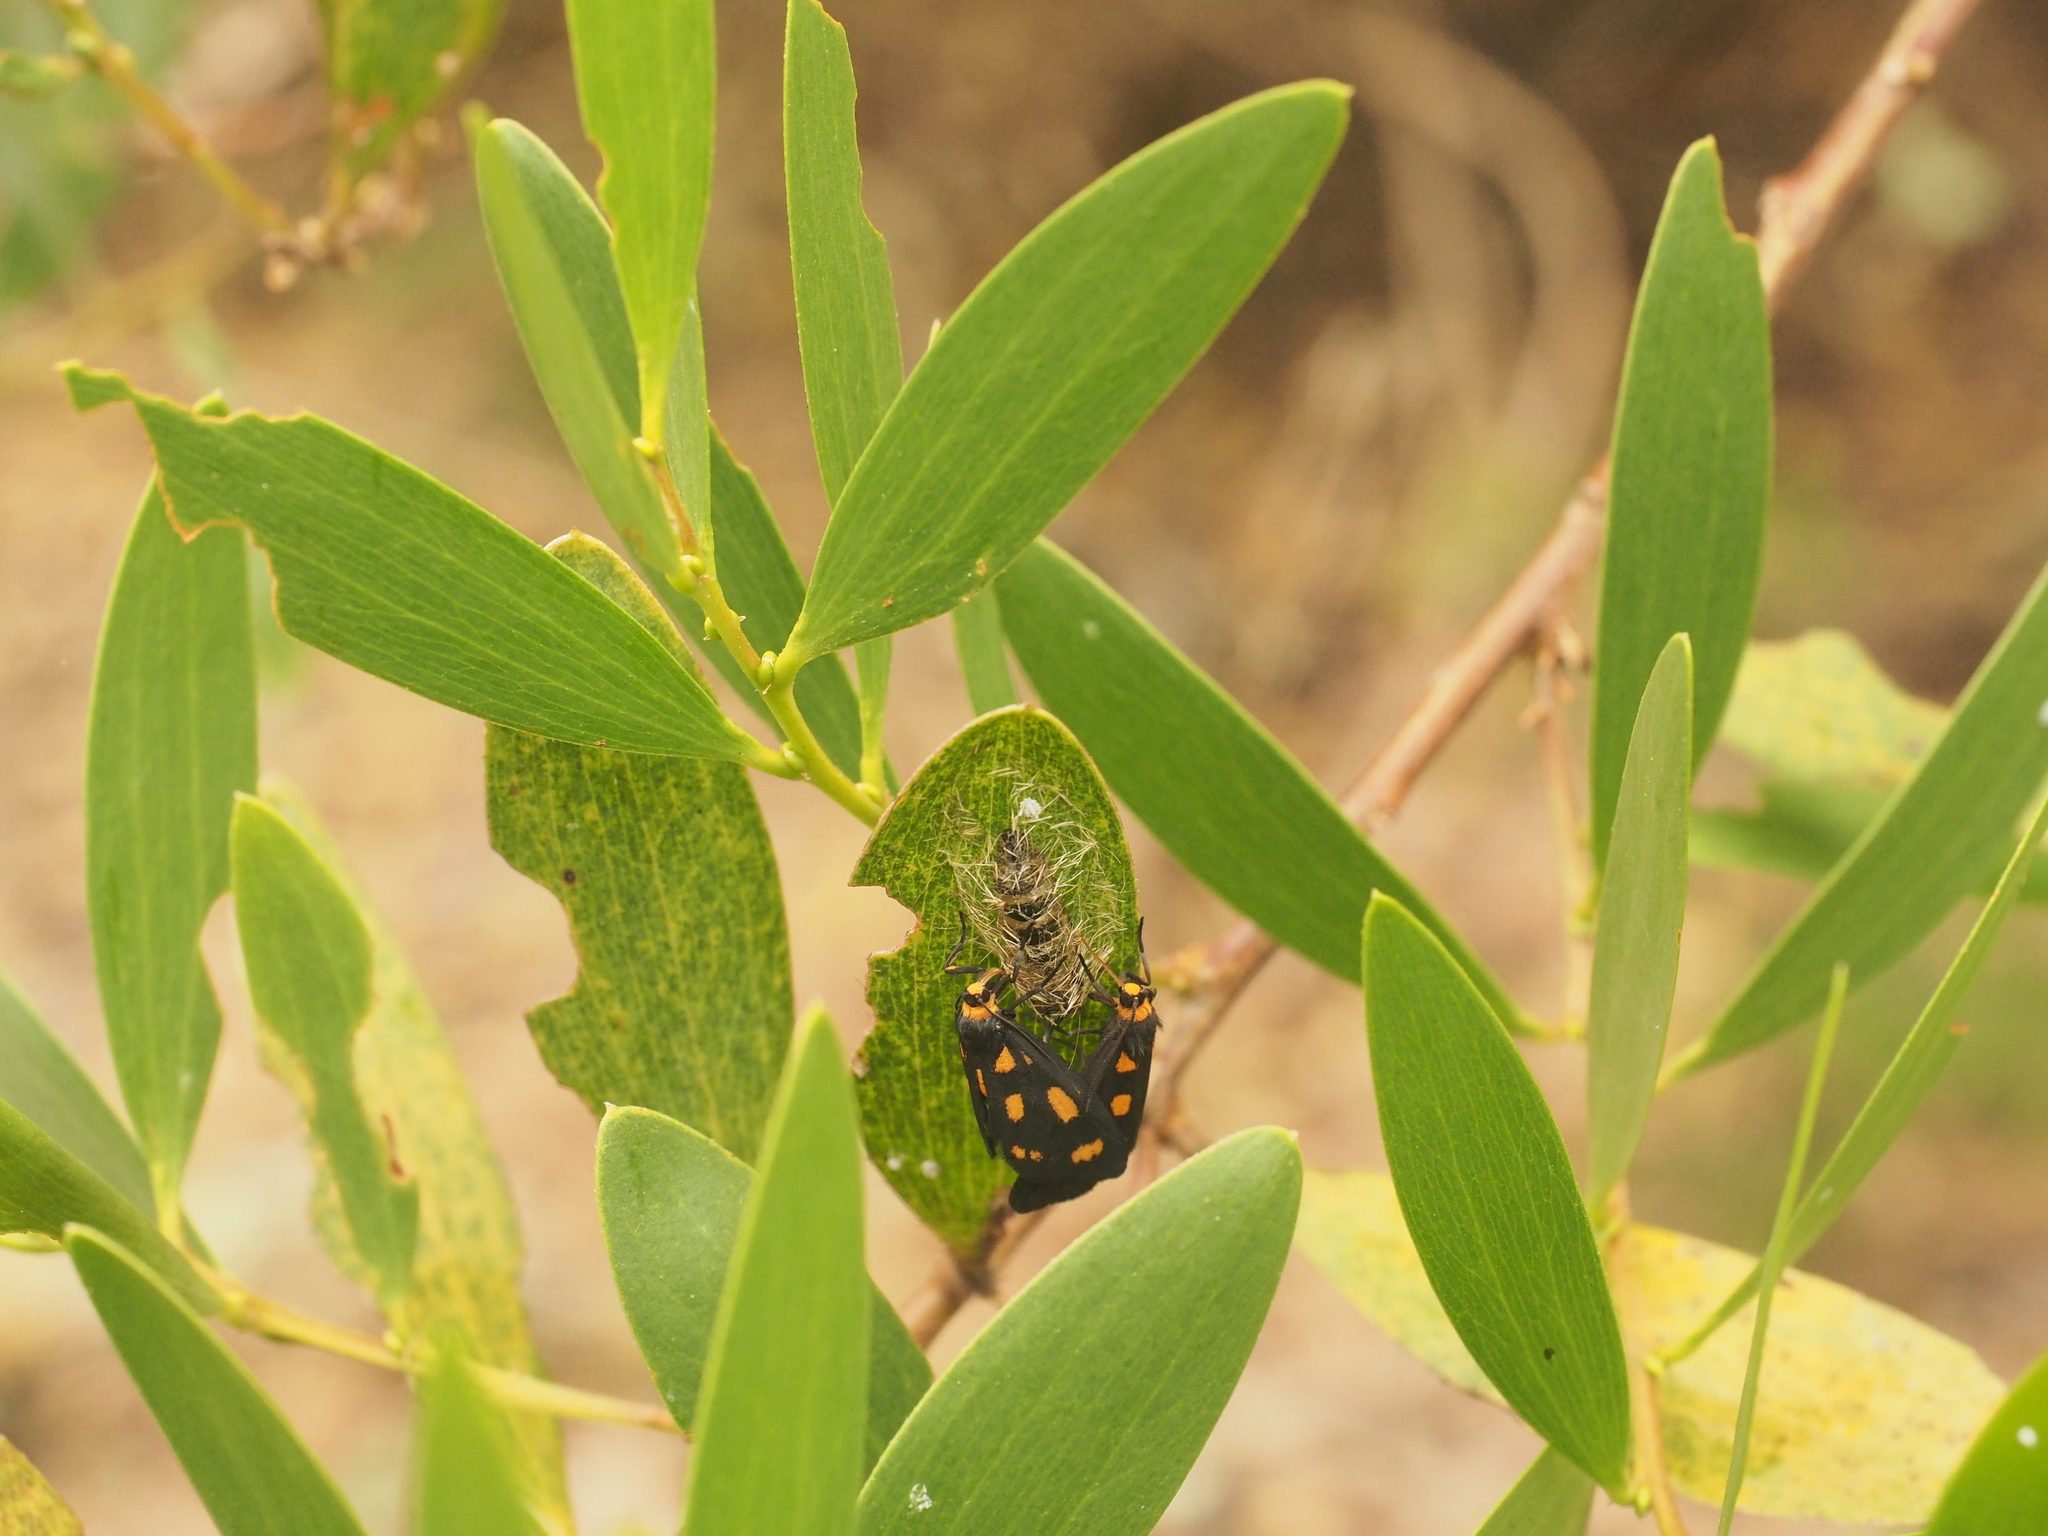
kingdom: Animalia
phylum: Arthropoda
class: Insecta
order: Lepidoptera
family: Erebidae
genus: Asura
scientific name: Asura cervicalis
